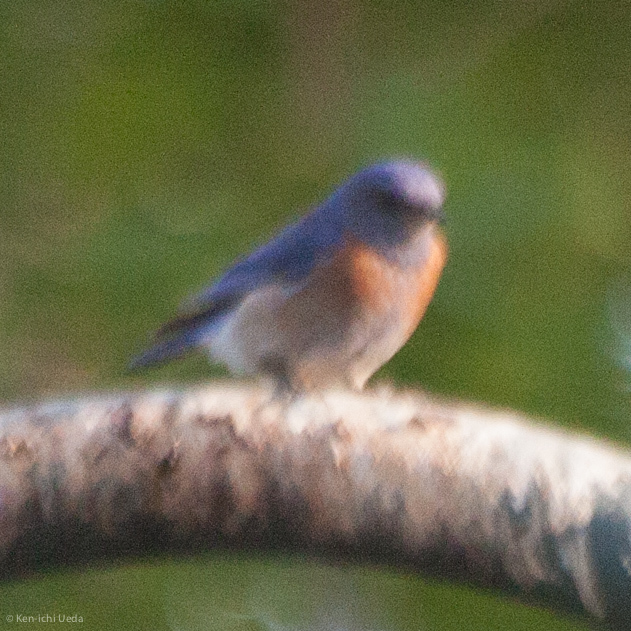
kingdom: Animalia
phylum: Chordata
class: Aves
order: Passeriformes
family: Turdidae
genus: Sialia
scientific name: Sialia mexicana
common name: Western bluebird
